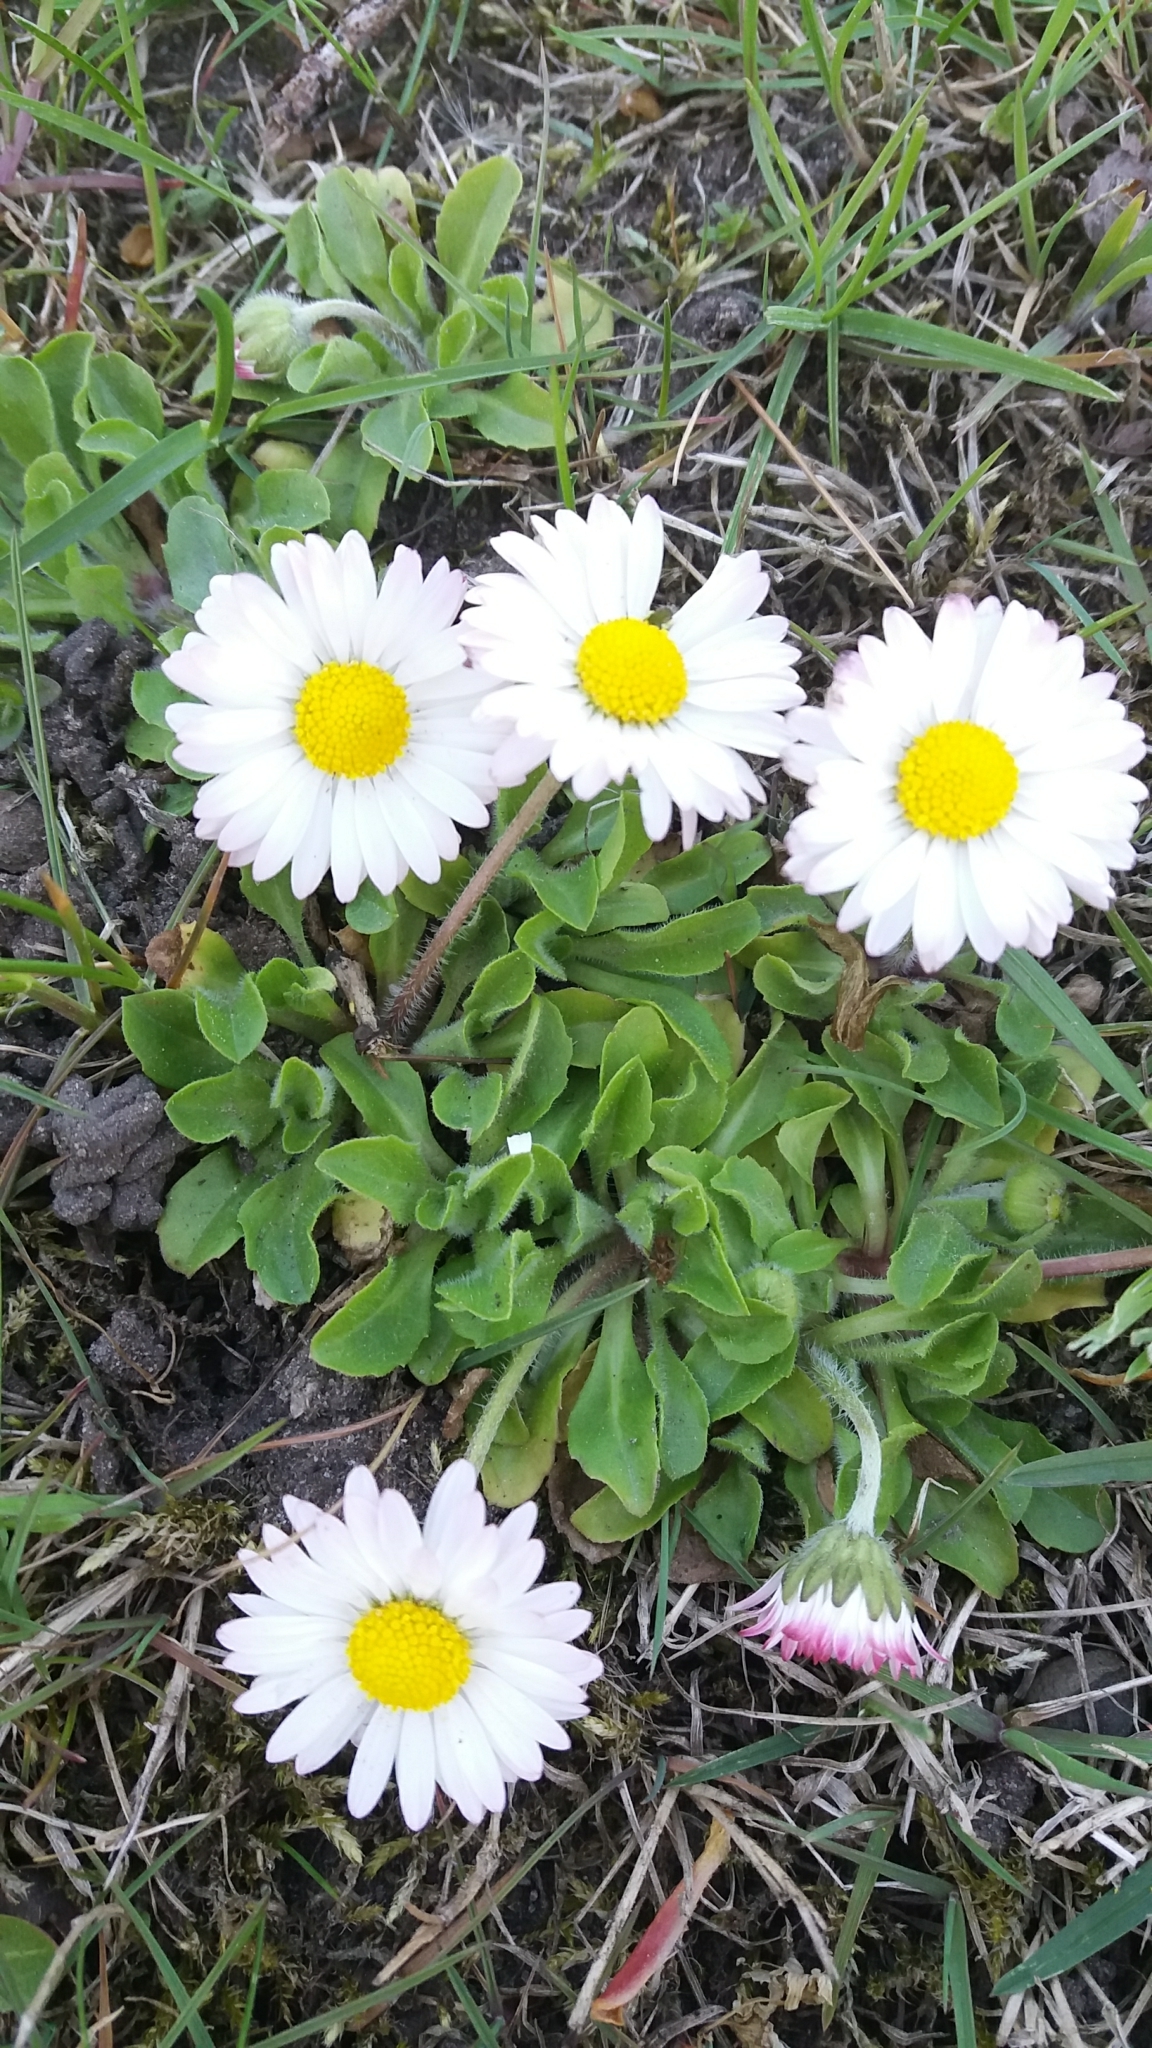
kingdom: Plantae
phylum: Tracheophyta
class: Magnoliopsida
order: Asterales
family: Asteraceae
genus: Bellis
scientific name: Bellis perennis
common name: Lawndaisy
